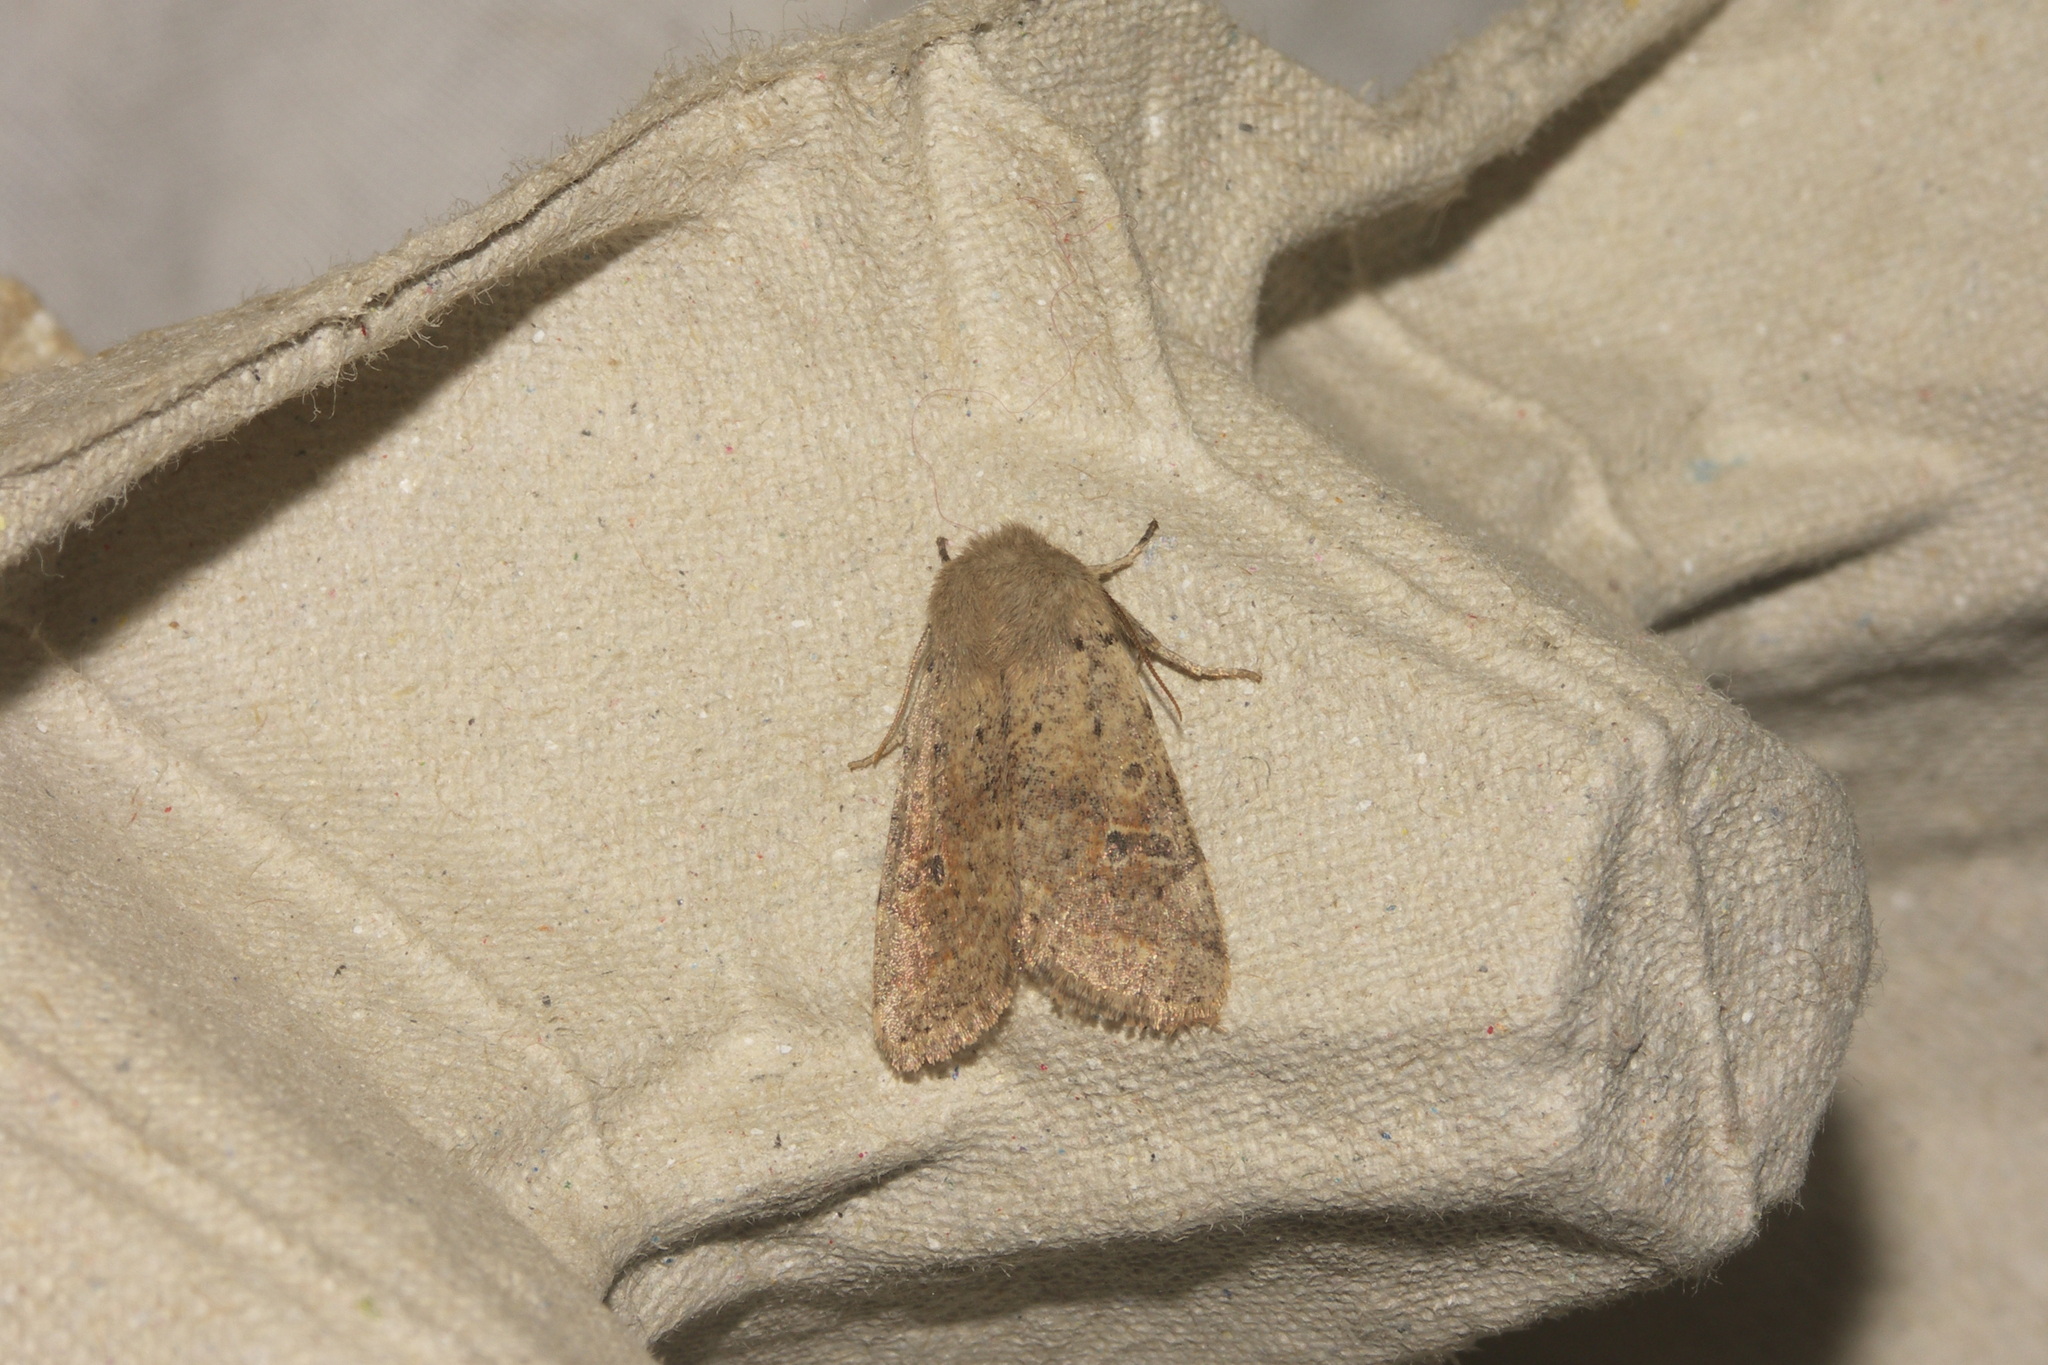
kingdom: Animalia
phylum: Arthropoda
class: Insecta
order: Lepidoptera
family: Noctuidae
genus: Orthosia
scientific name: Orthosia cruda
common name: Small quaker
